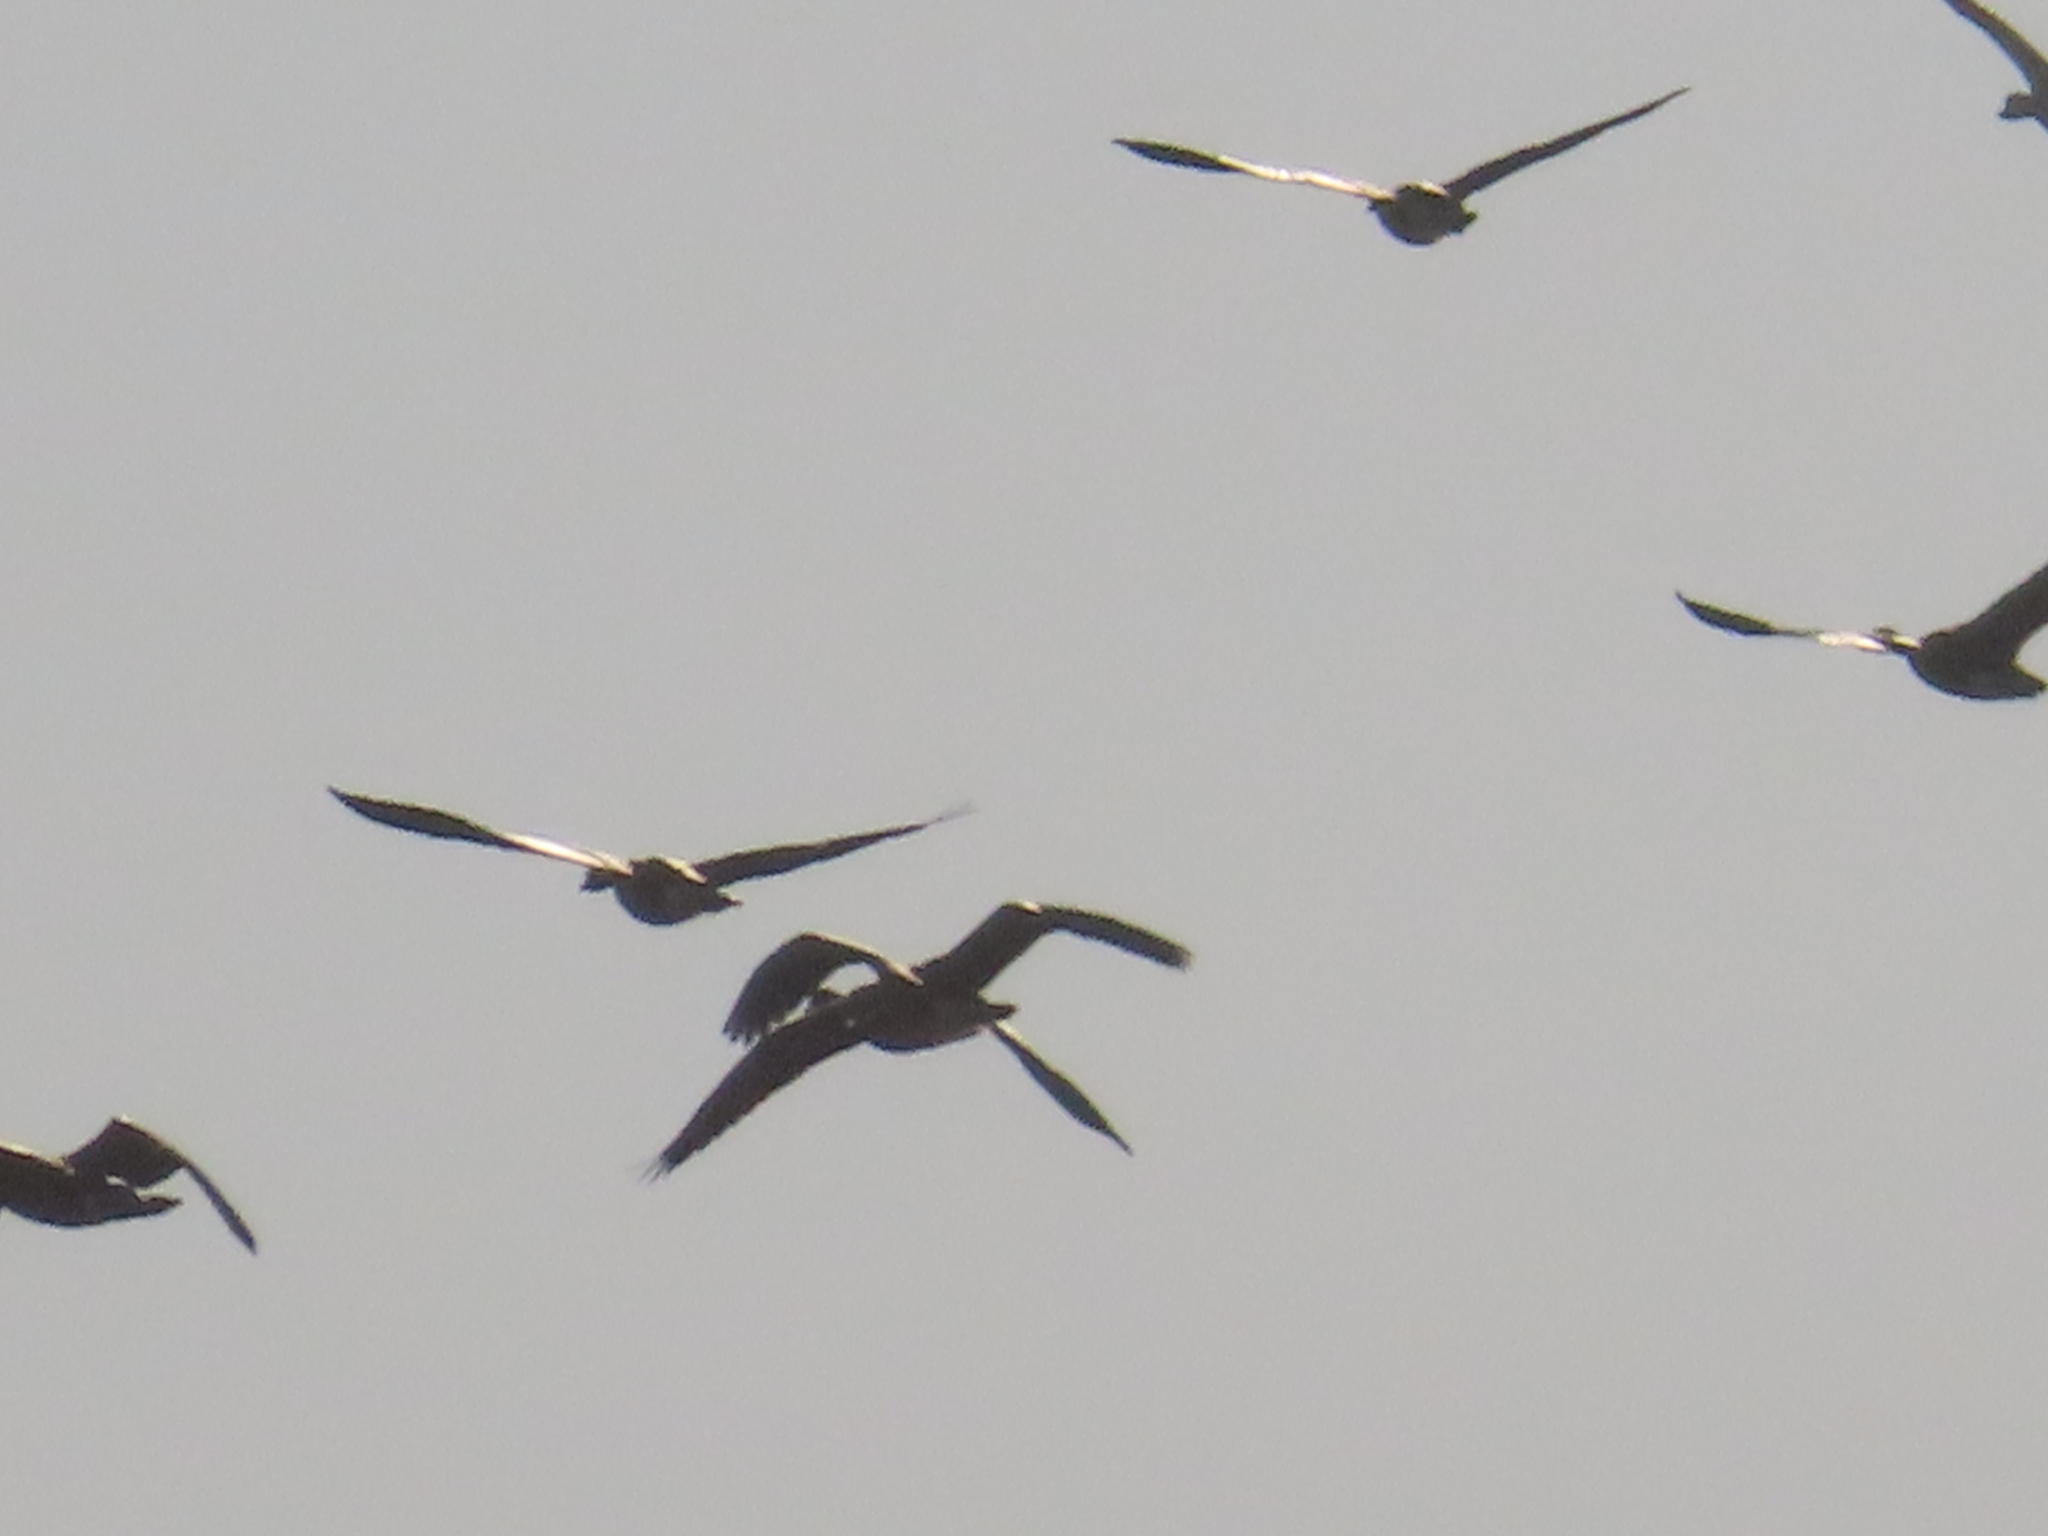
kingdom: Animalia
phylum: Chordata
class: Aves
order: Anseriformes
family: Anatidae
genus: Anser
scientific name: Anser caerulescens
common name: Snow goose
